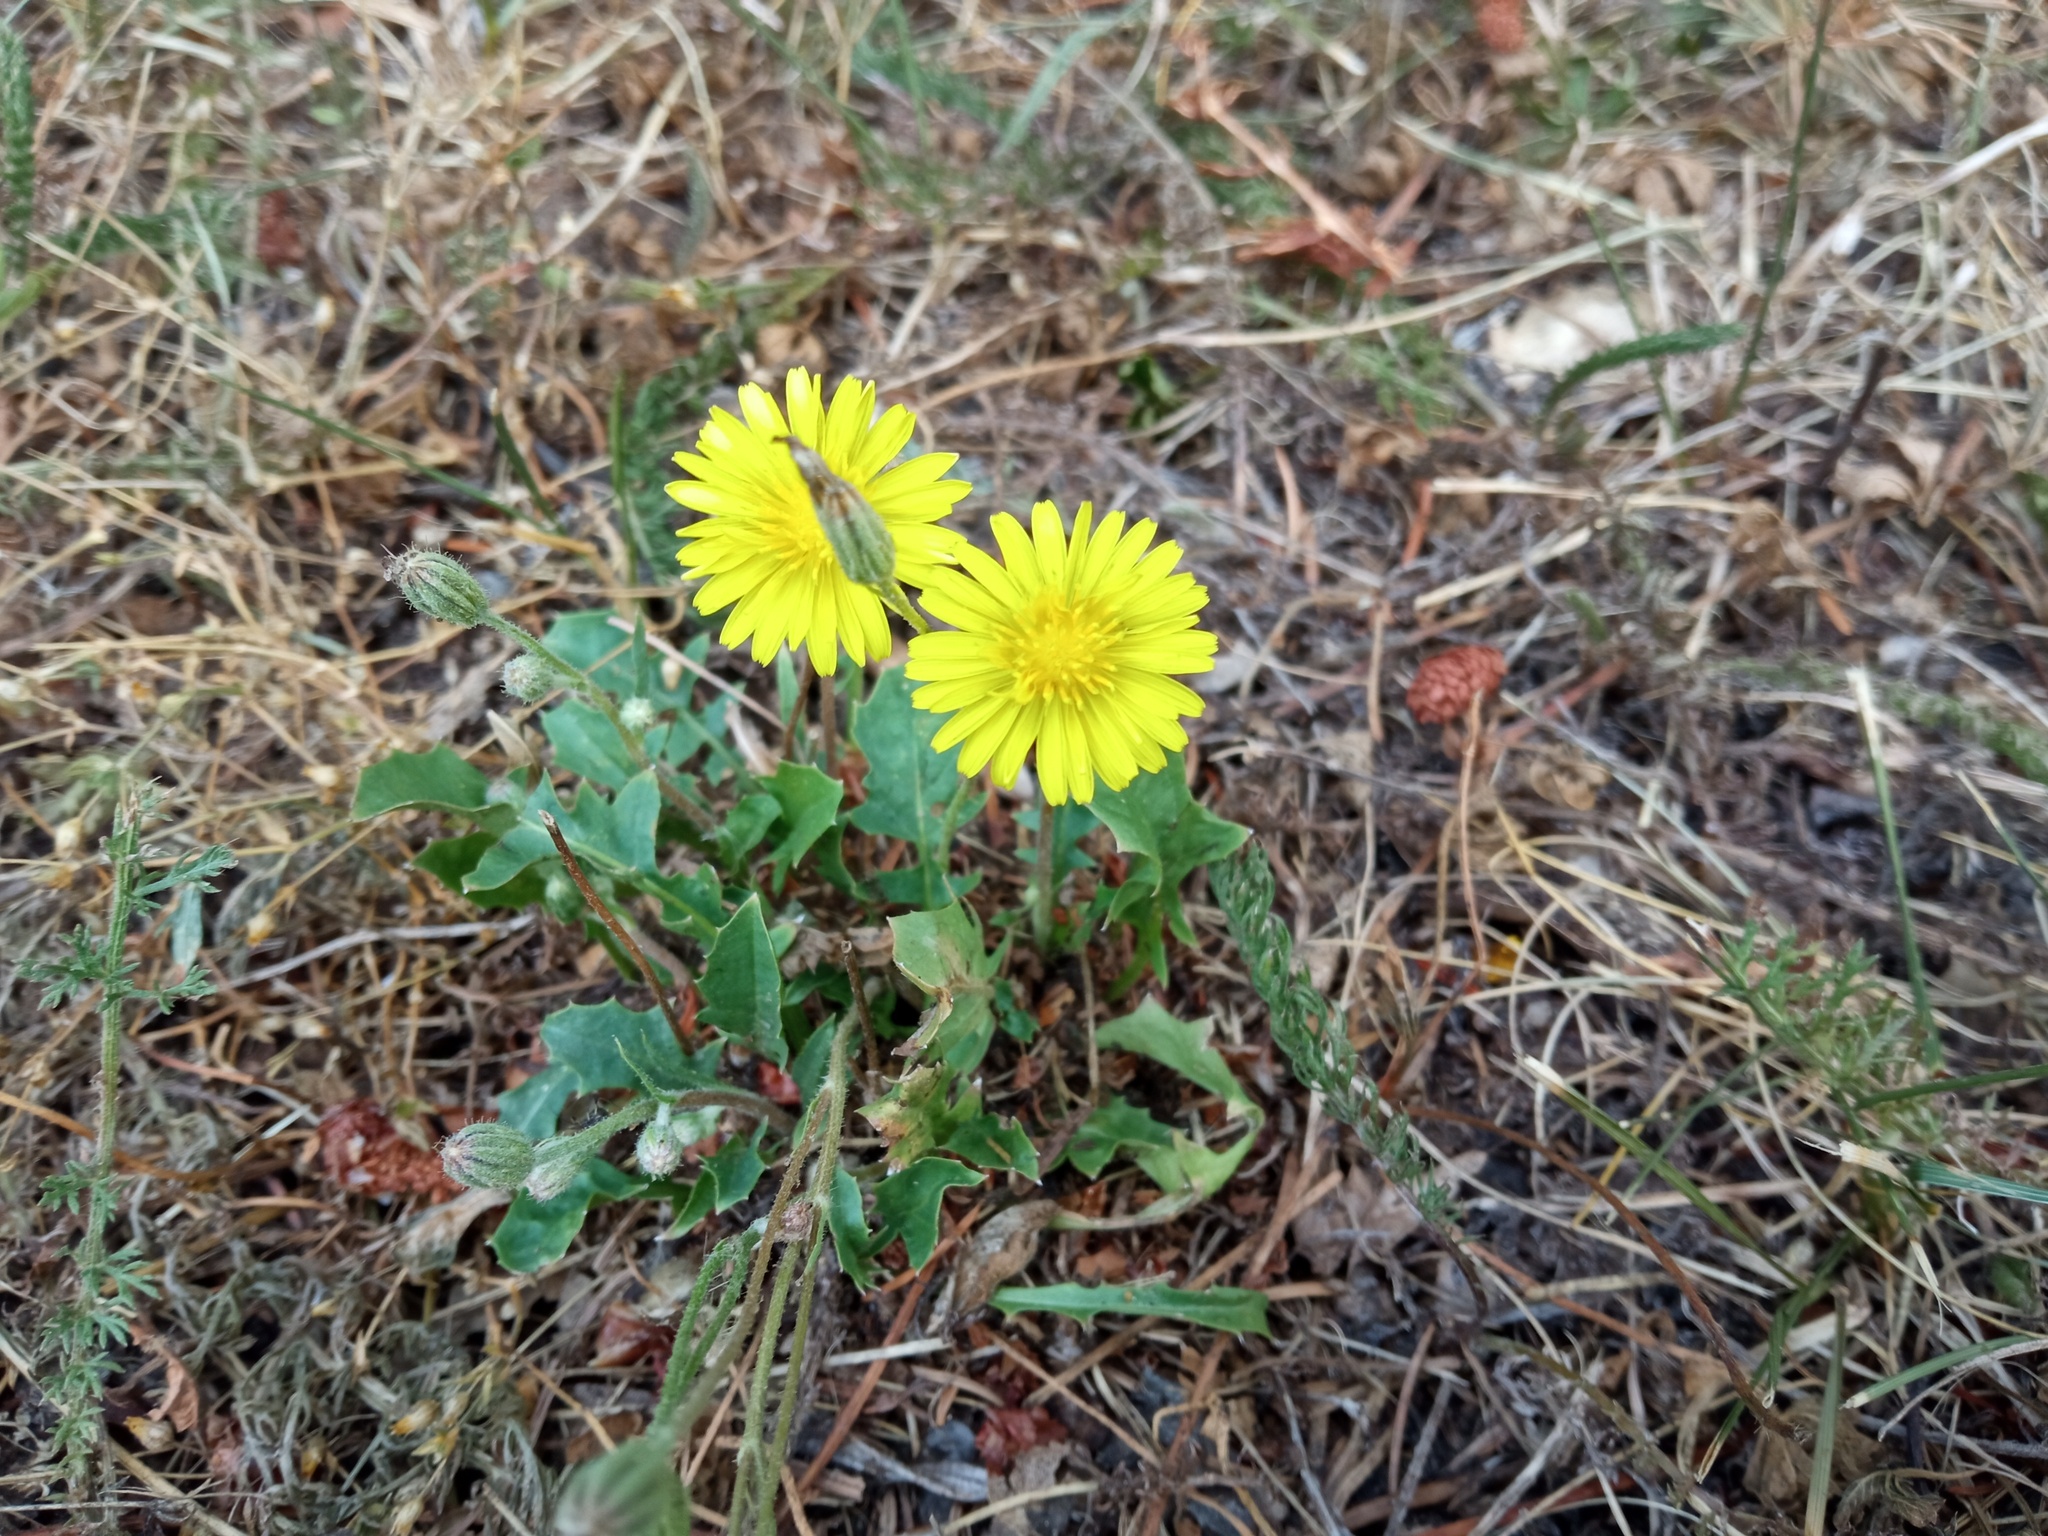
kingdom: Plantae
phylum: Tracheophyta
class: Magnoliopsida
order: Asterales
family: Asteraceae
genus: Crepis
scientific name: Crepis bursifolia
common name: Italian hawksbeard
